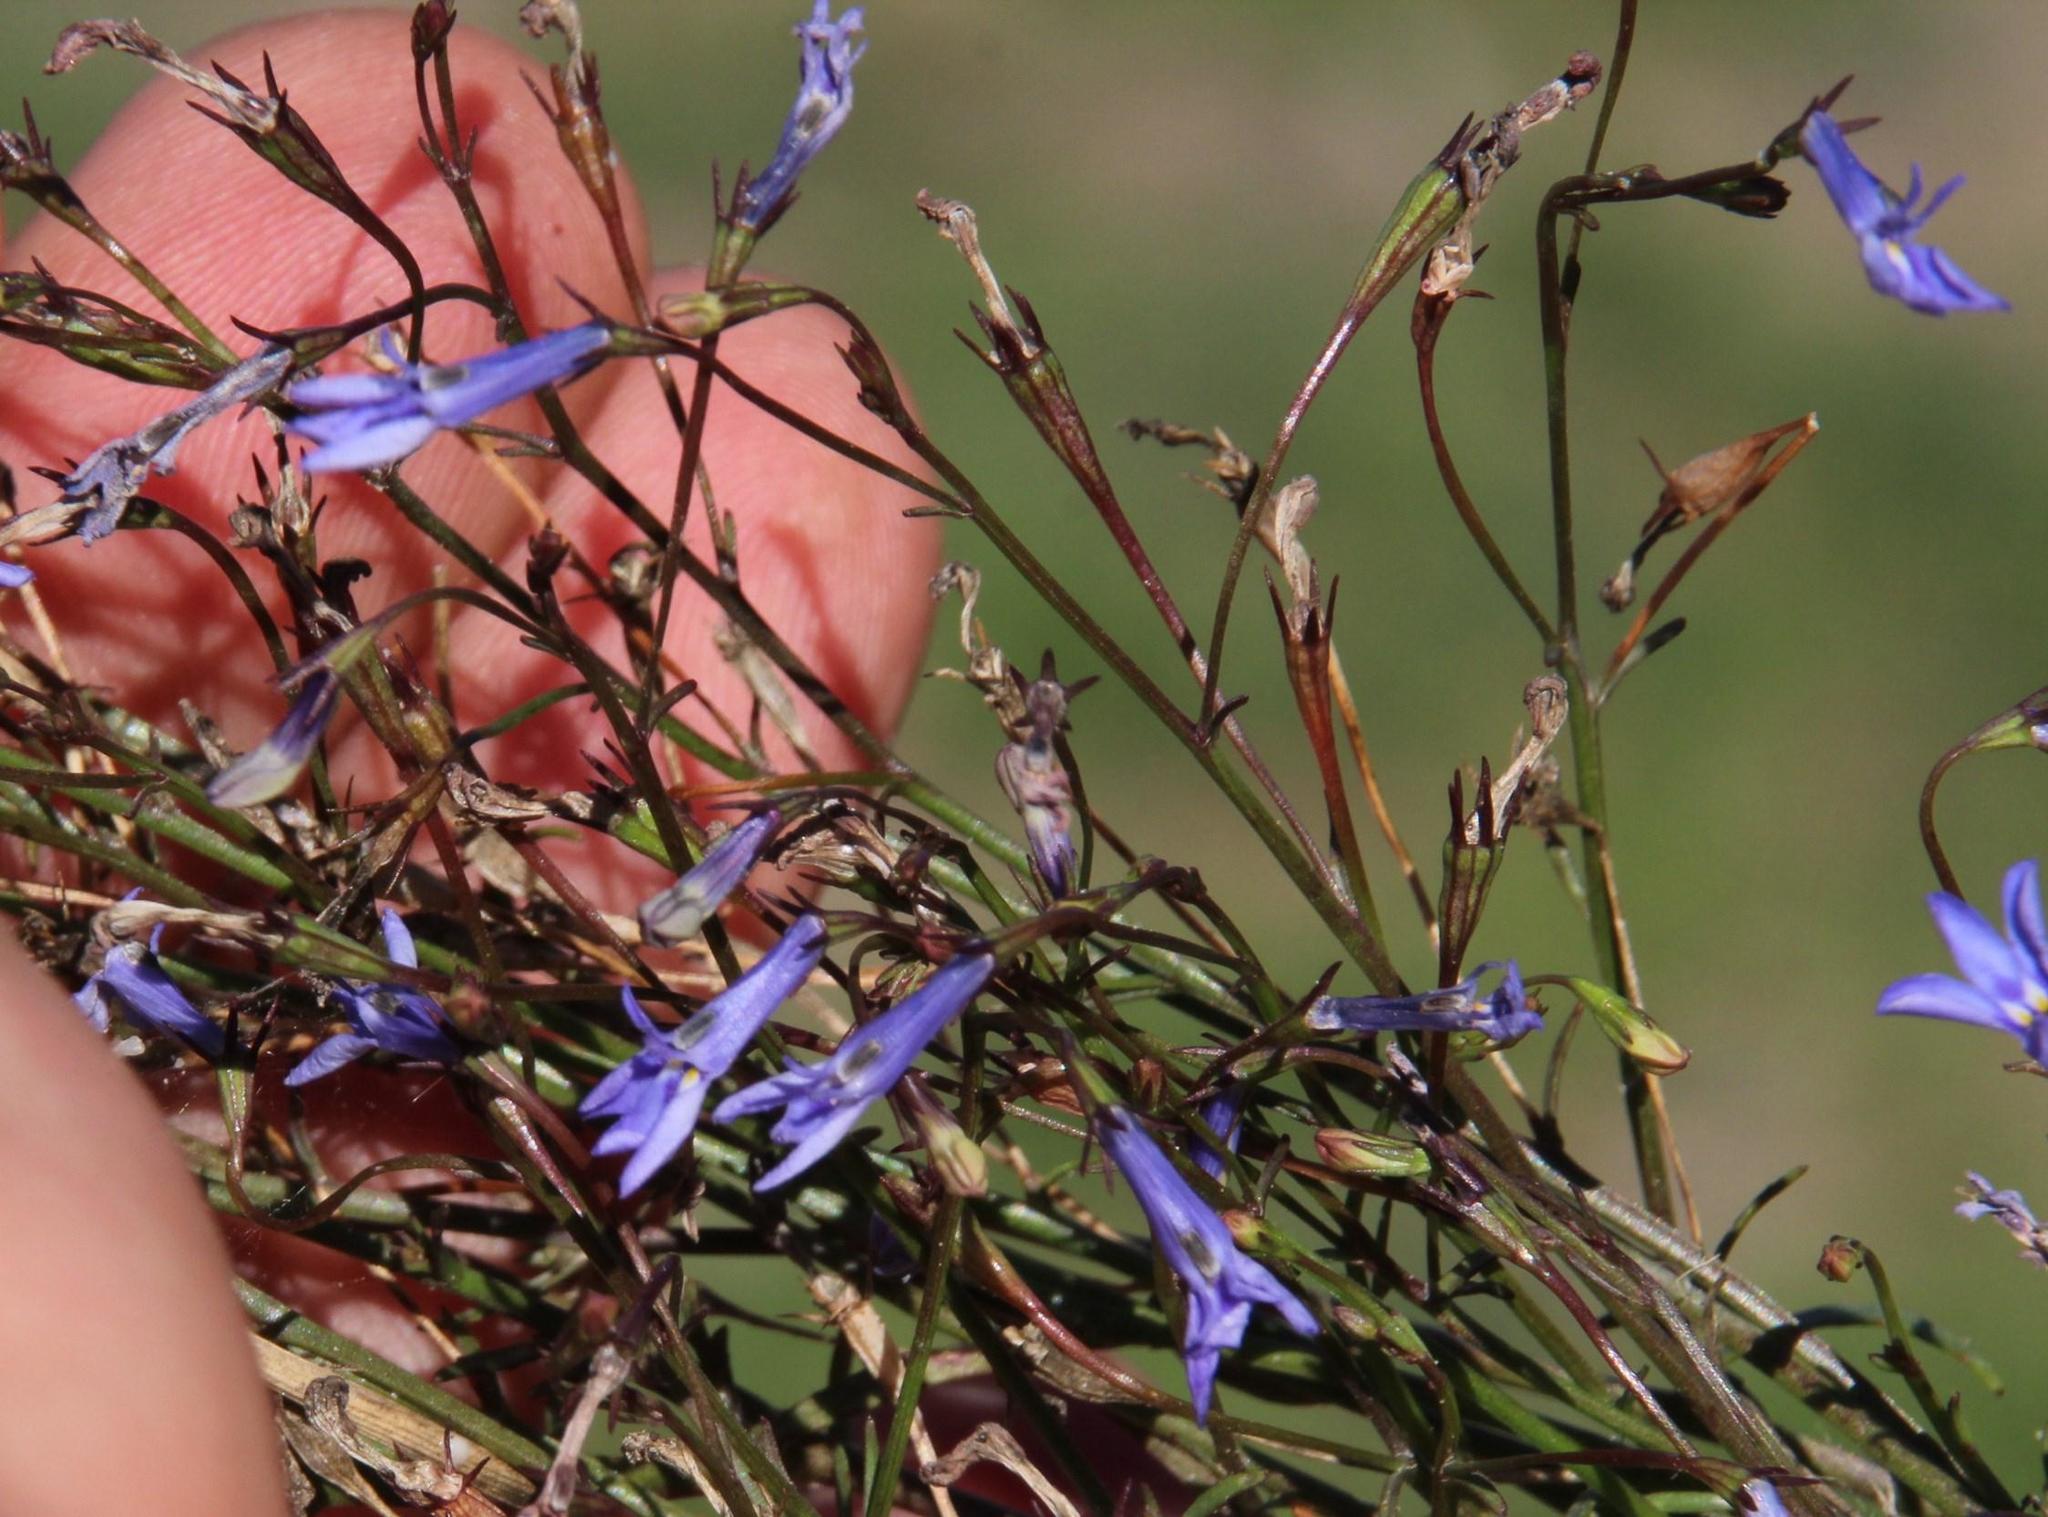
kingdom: Plantae
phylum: Tracheophyta
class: Magnoliopsida
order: Asterales
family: Campanulaceae
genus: Lobelia
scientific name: Lobelia erinus
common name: Edging lobelia
